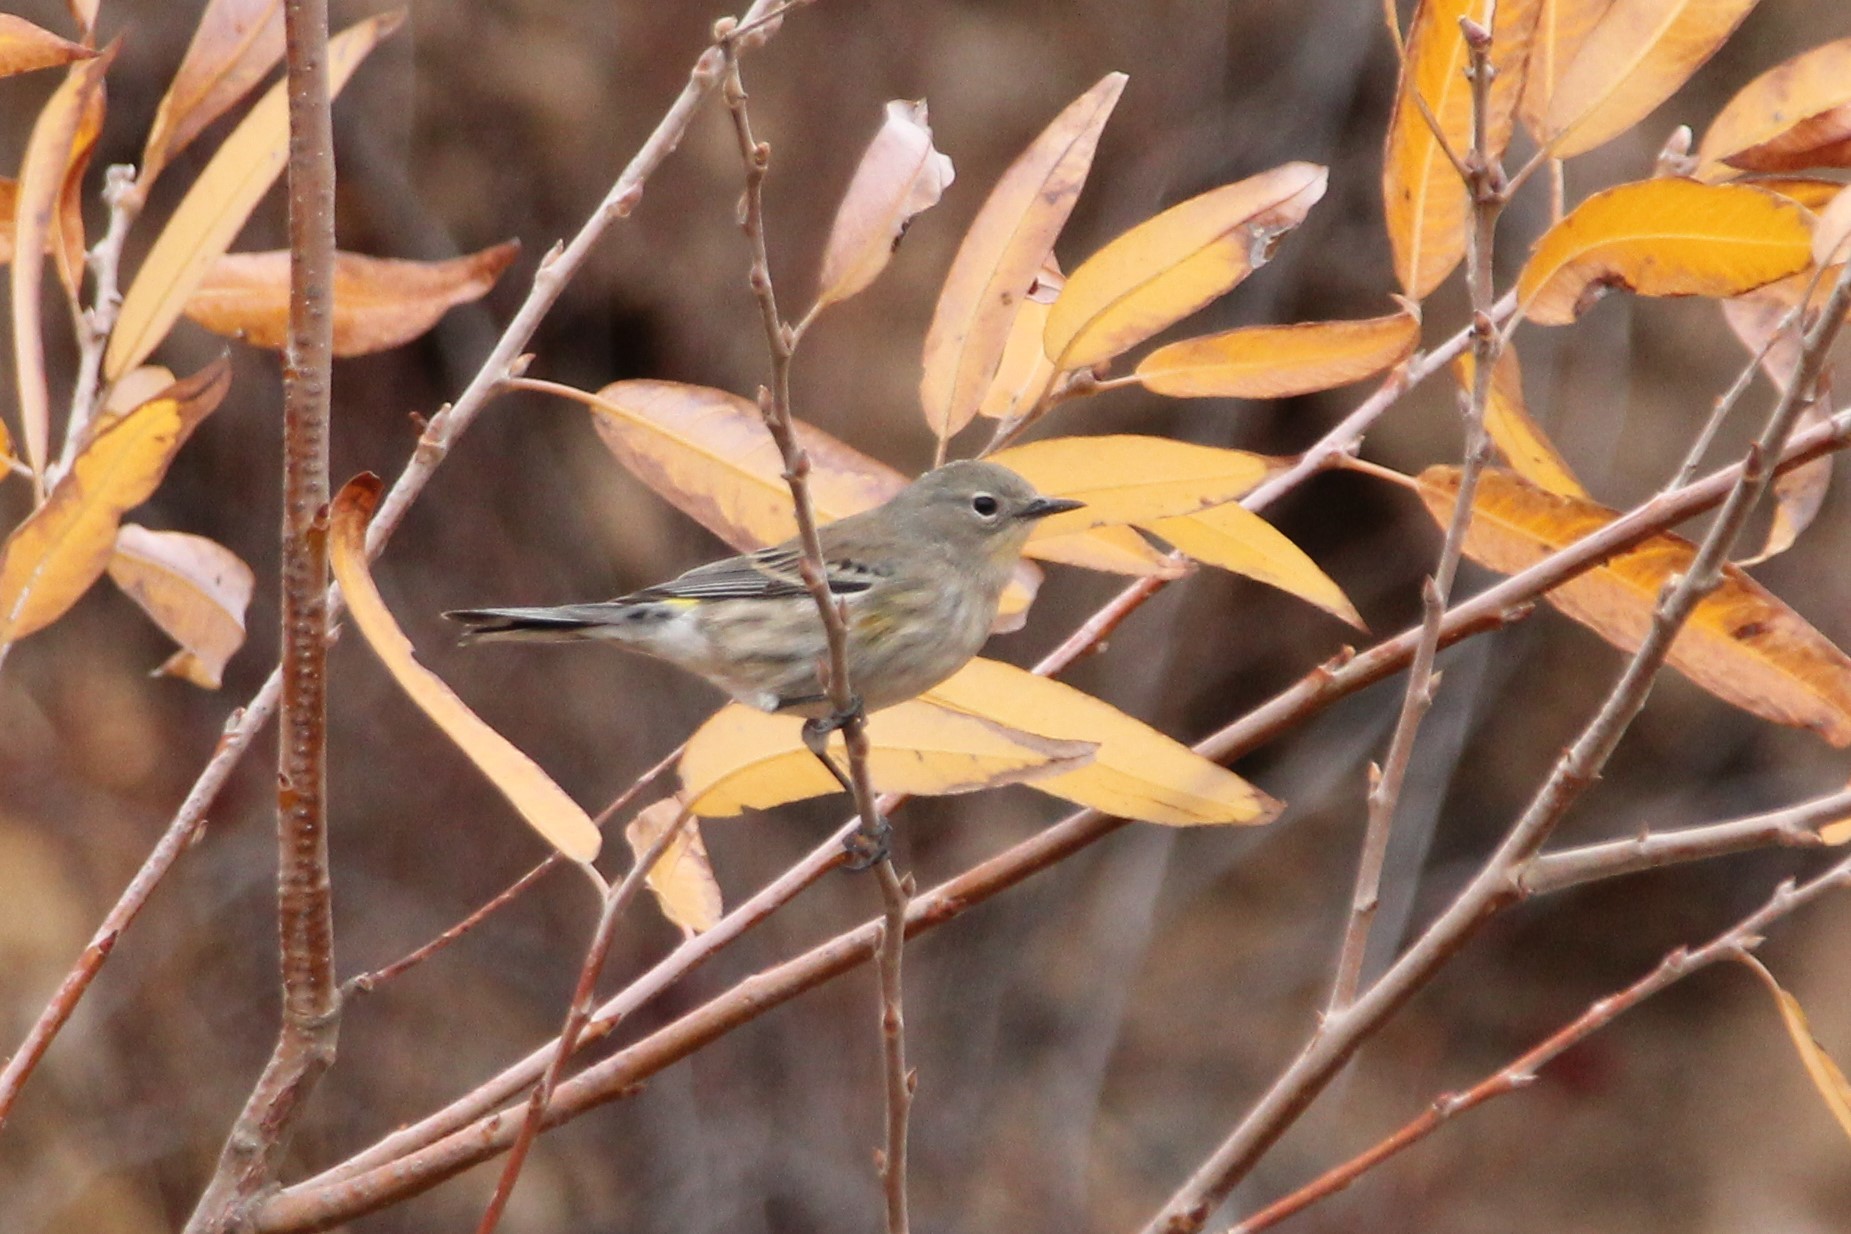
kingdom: Animalia
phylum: Chordata
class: Aves
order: Passeriformes
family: Parulidae
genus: Setophaga
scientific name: Setophaga auduboni
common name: Audubon's warbler
